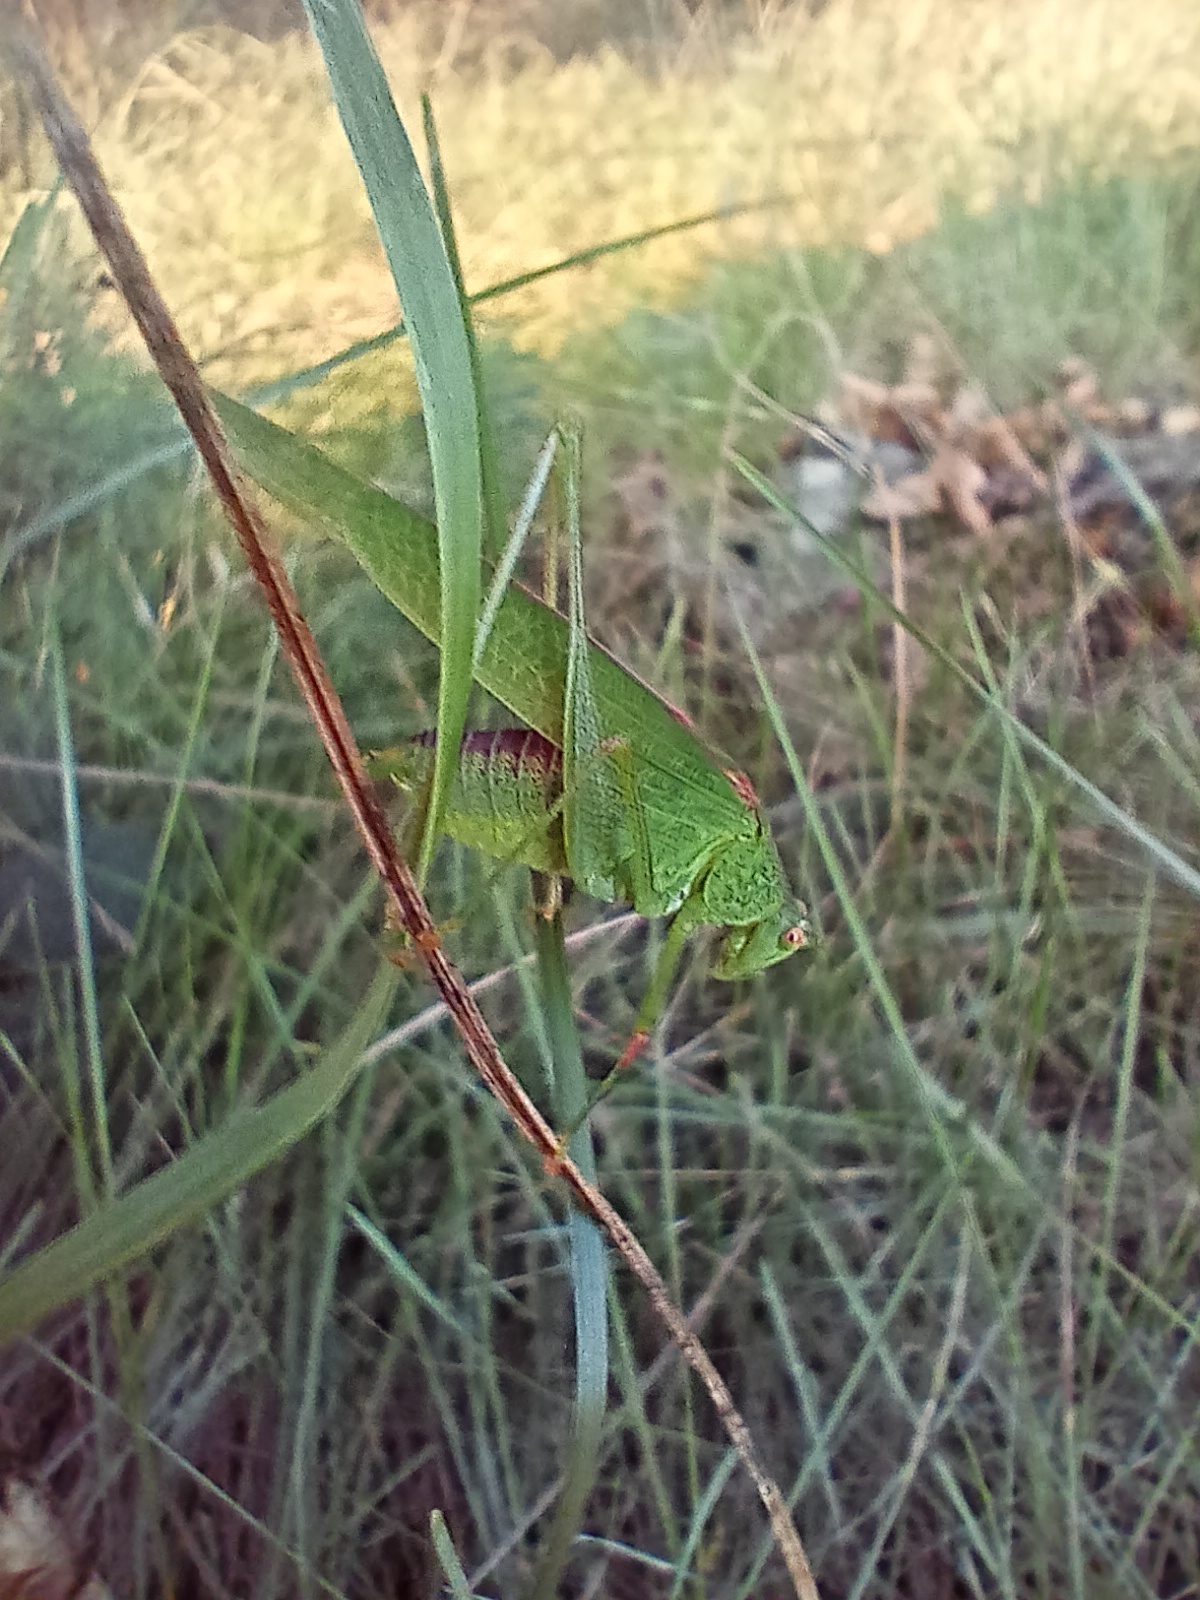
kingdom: Animalia
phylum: Arthropoda
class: Insecta
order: Orthoptera
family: Tettigoniidae
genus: Phaneroptera
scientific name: Phaneroptera nana
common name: Southern sickle bush-cricket
